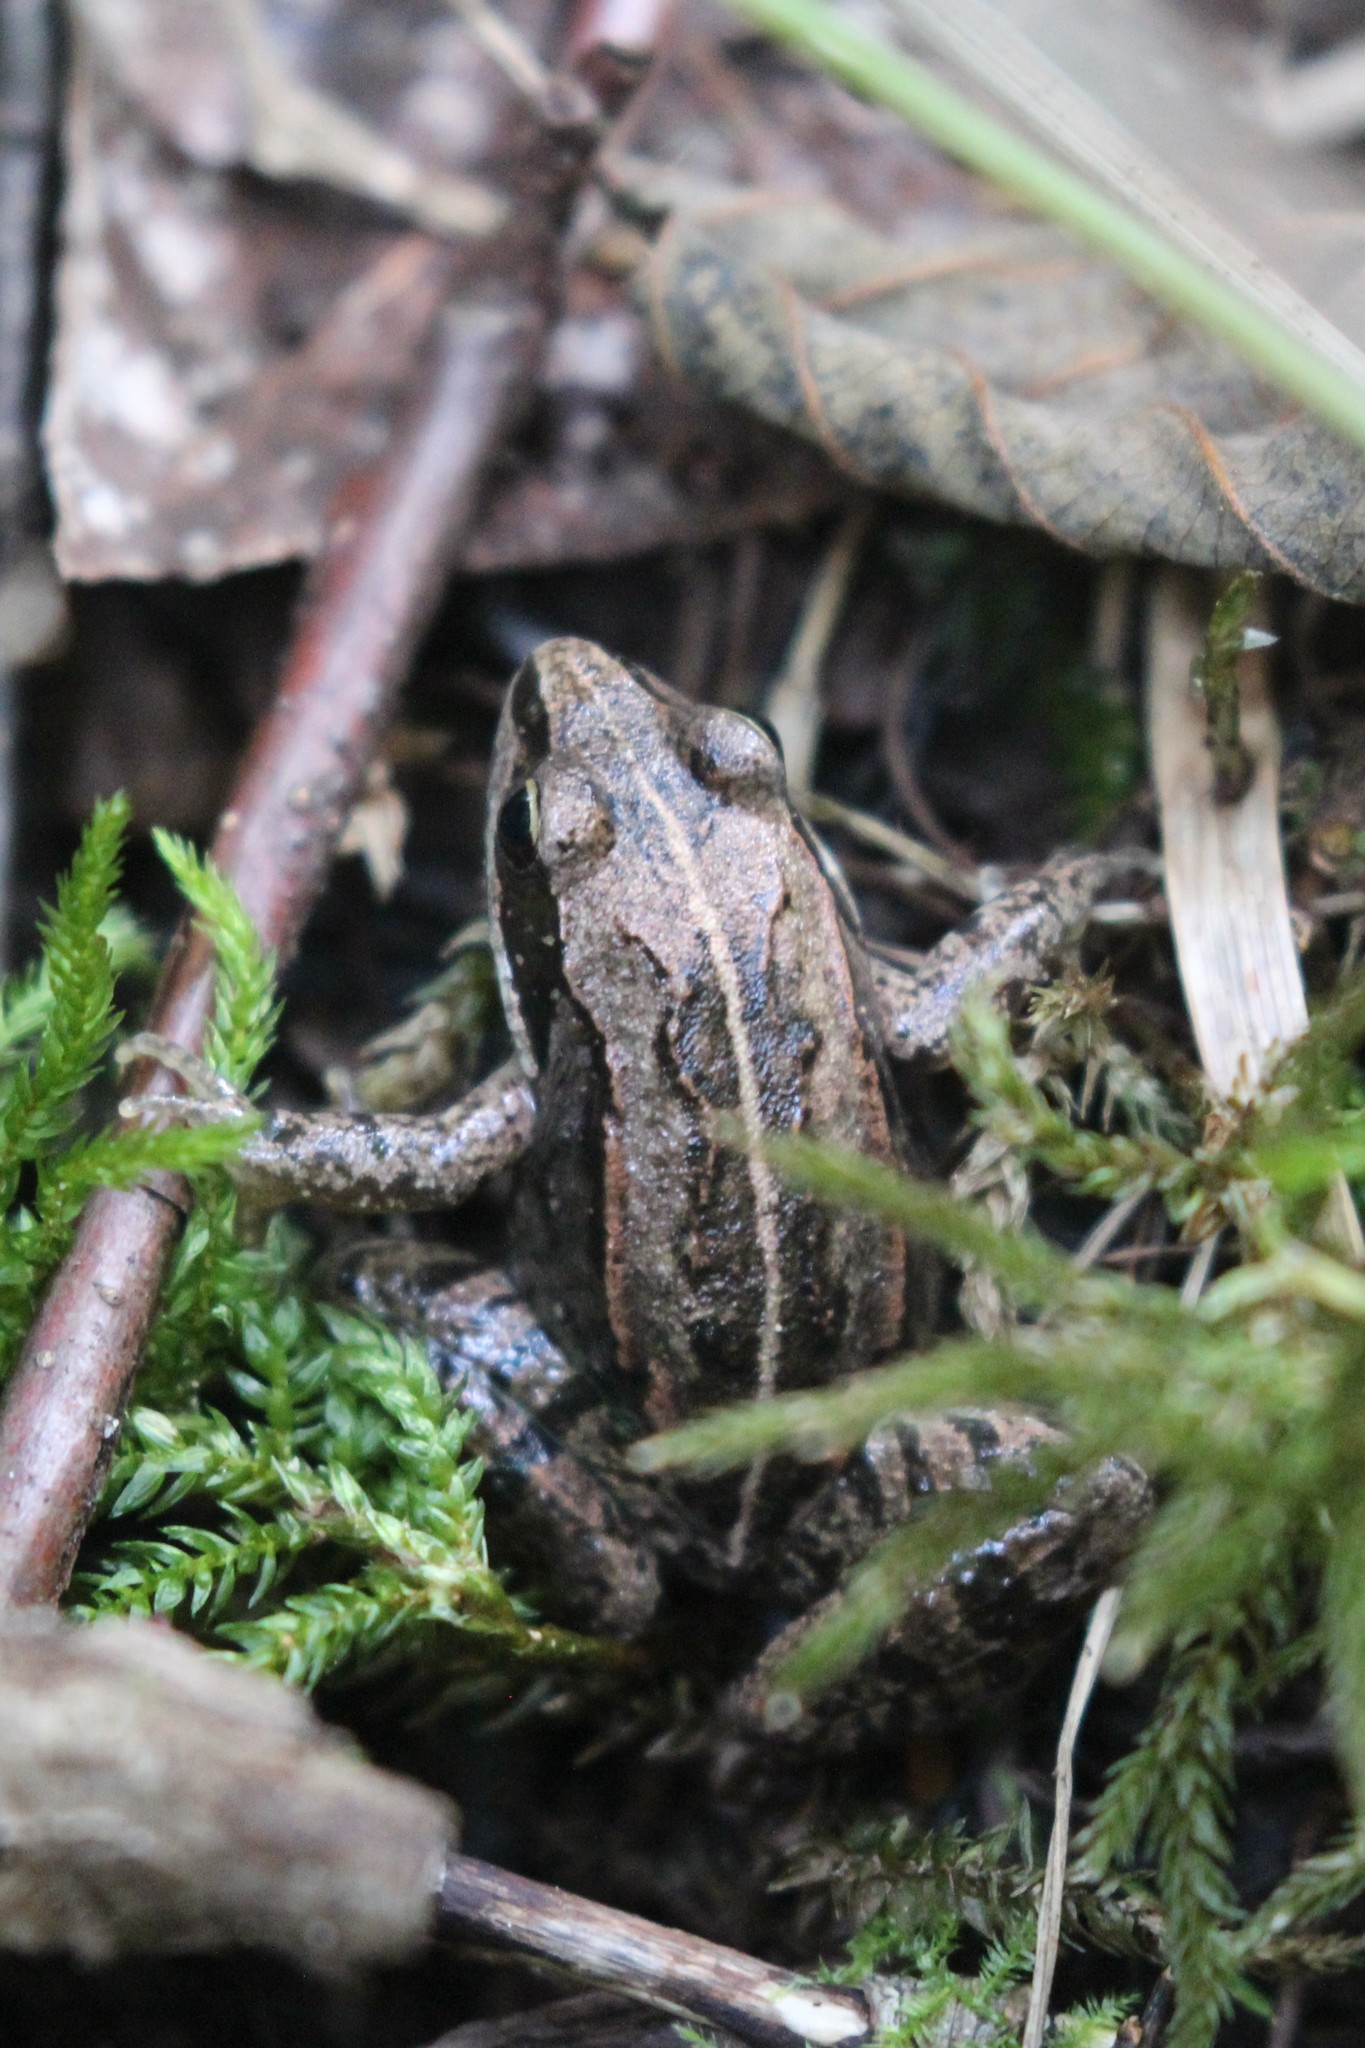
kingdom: Animalia
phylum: Chordata
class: Amphibia
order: Anura
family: Ranidae
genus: Lithobates
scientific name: Lithobates sylvaticus
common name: Wood frog
